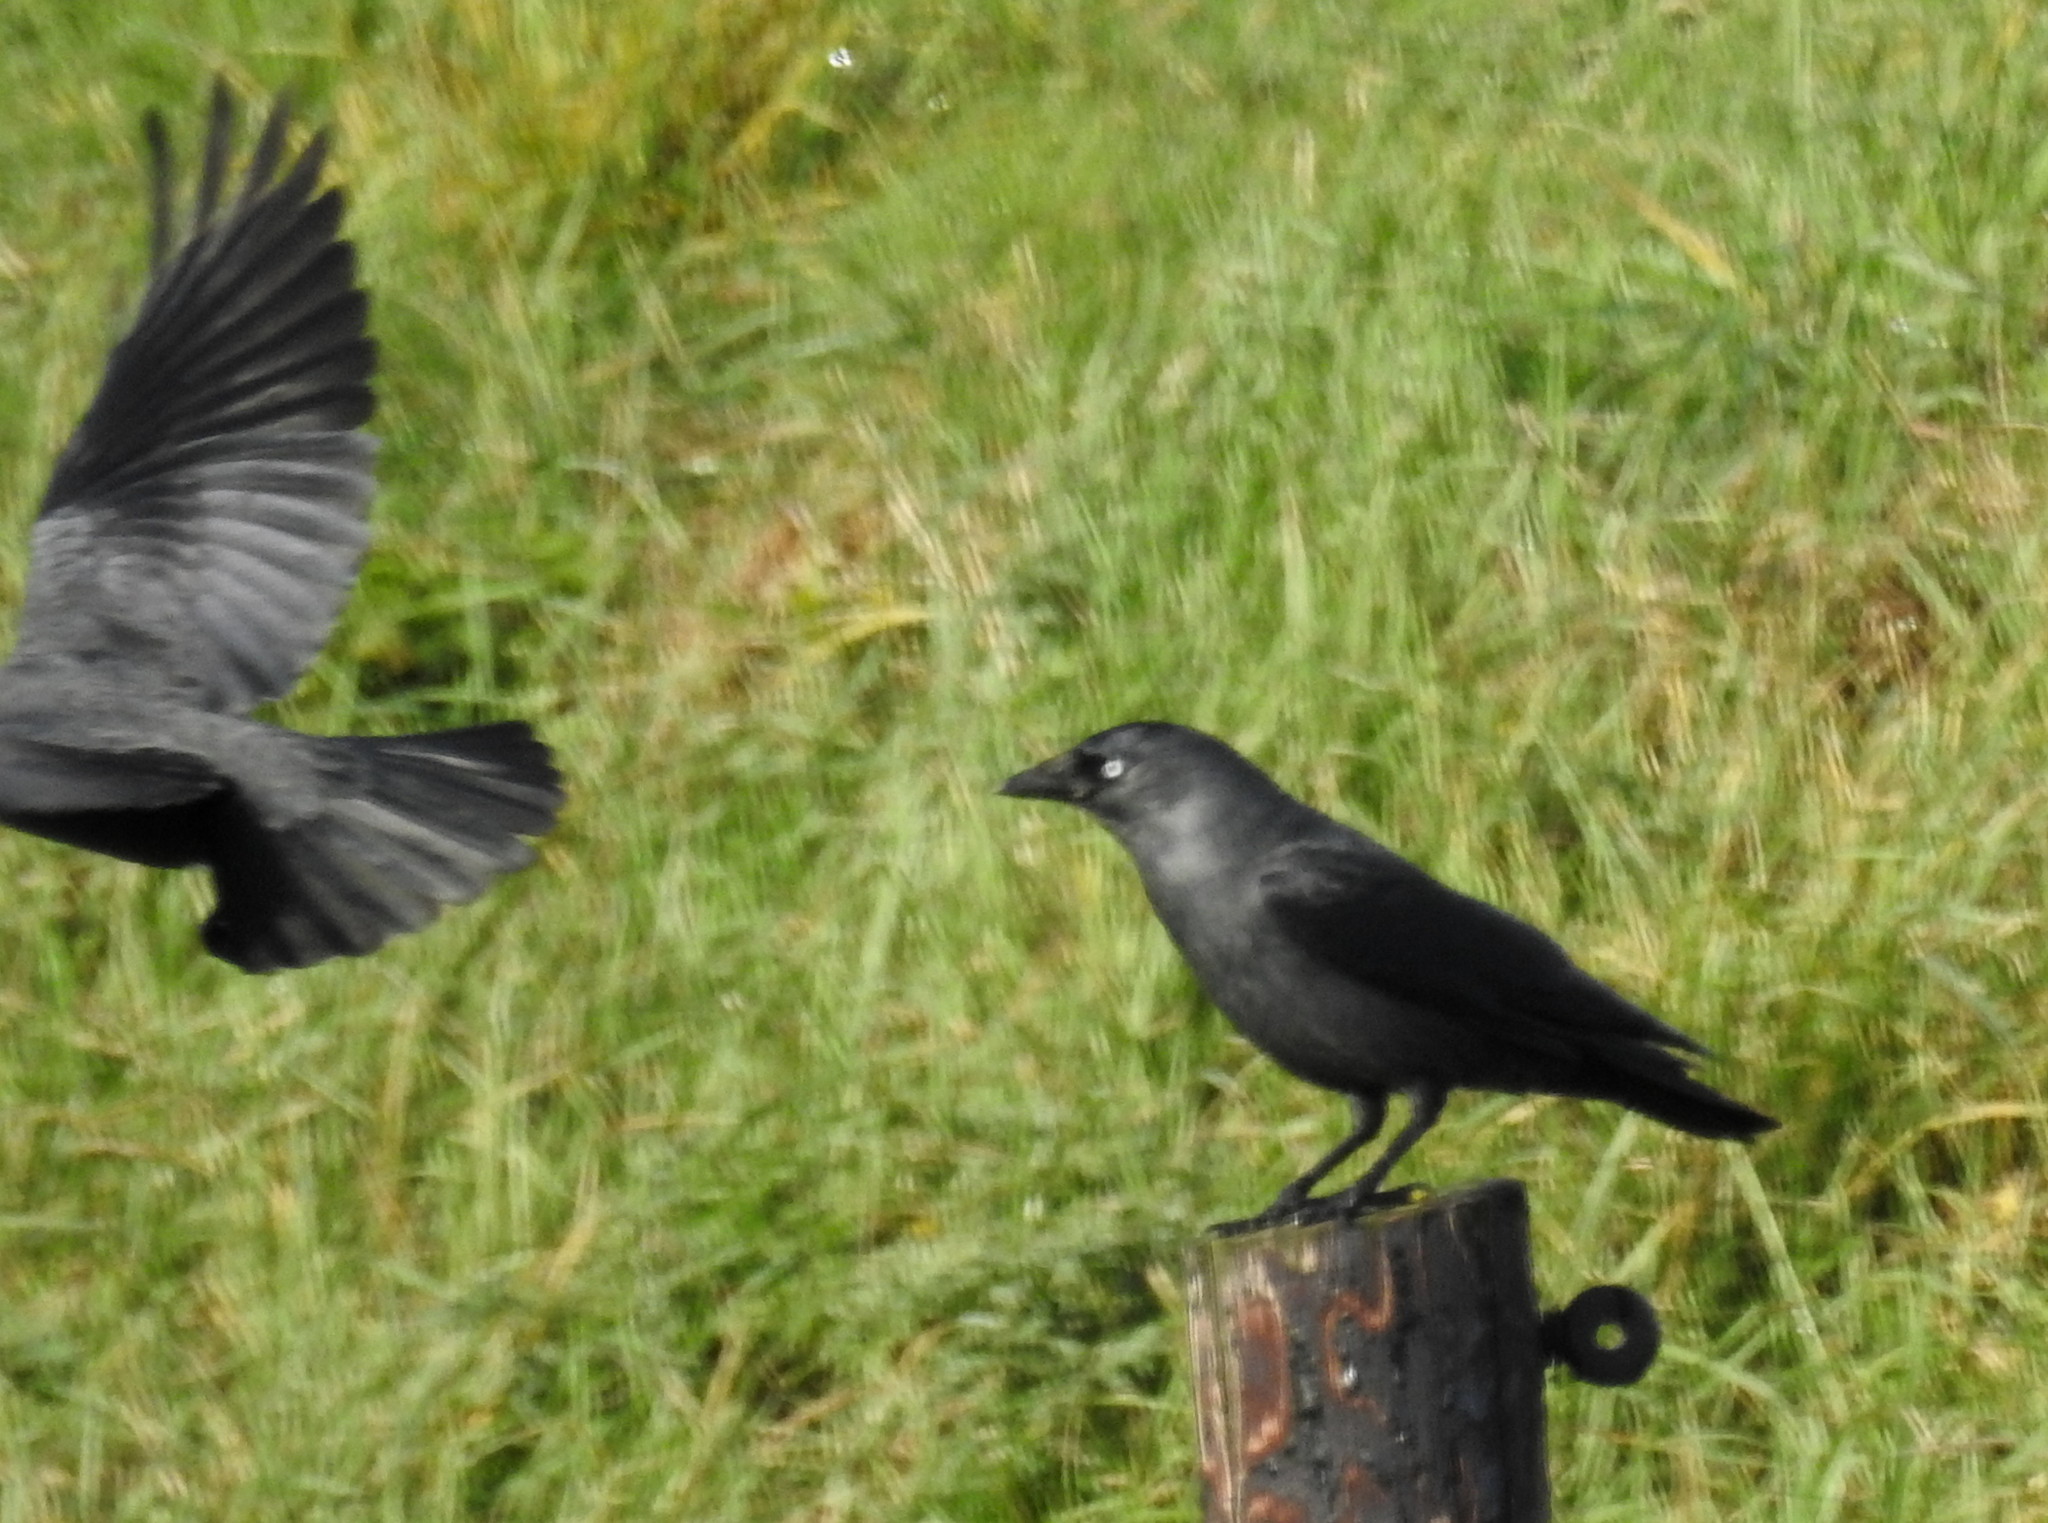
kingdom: Animalia
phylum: Chordata
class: Aves
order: Passeriformes
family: Corvidae
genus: Coloeus
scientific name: Coloeus monedula
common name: Western jackdaw
